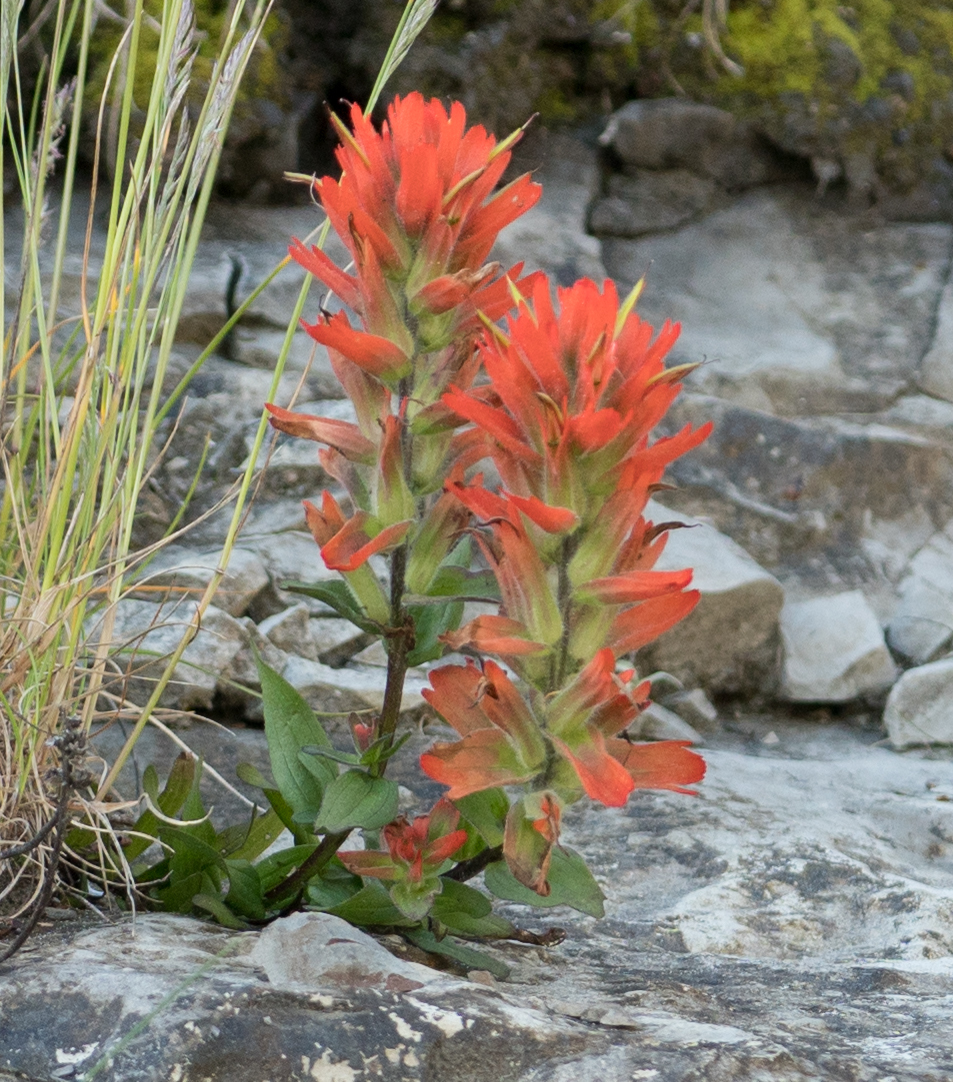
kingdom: Plantae
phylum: Tracheophyta
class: Magnoliopsida
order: Lamiales
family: Orobanchaceae
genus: Castilleja
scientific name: Castilleja litoralis
